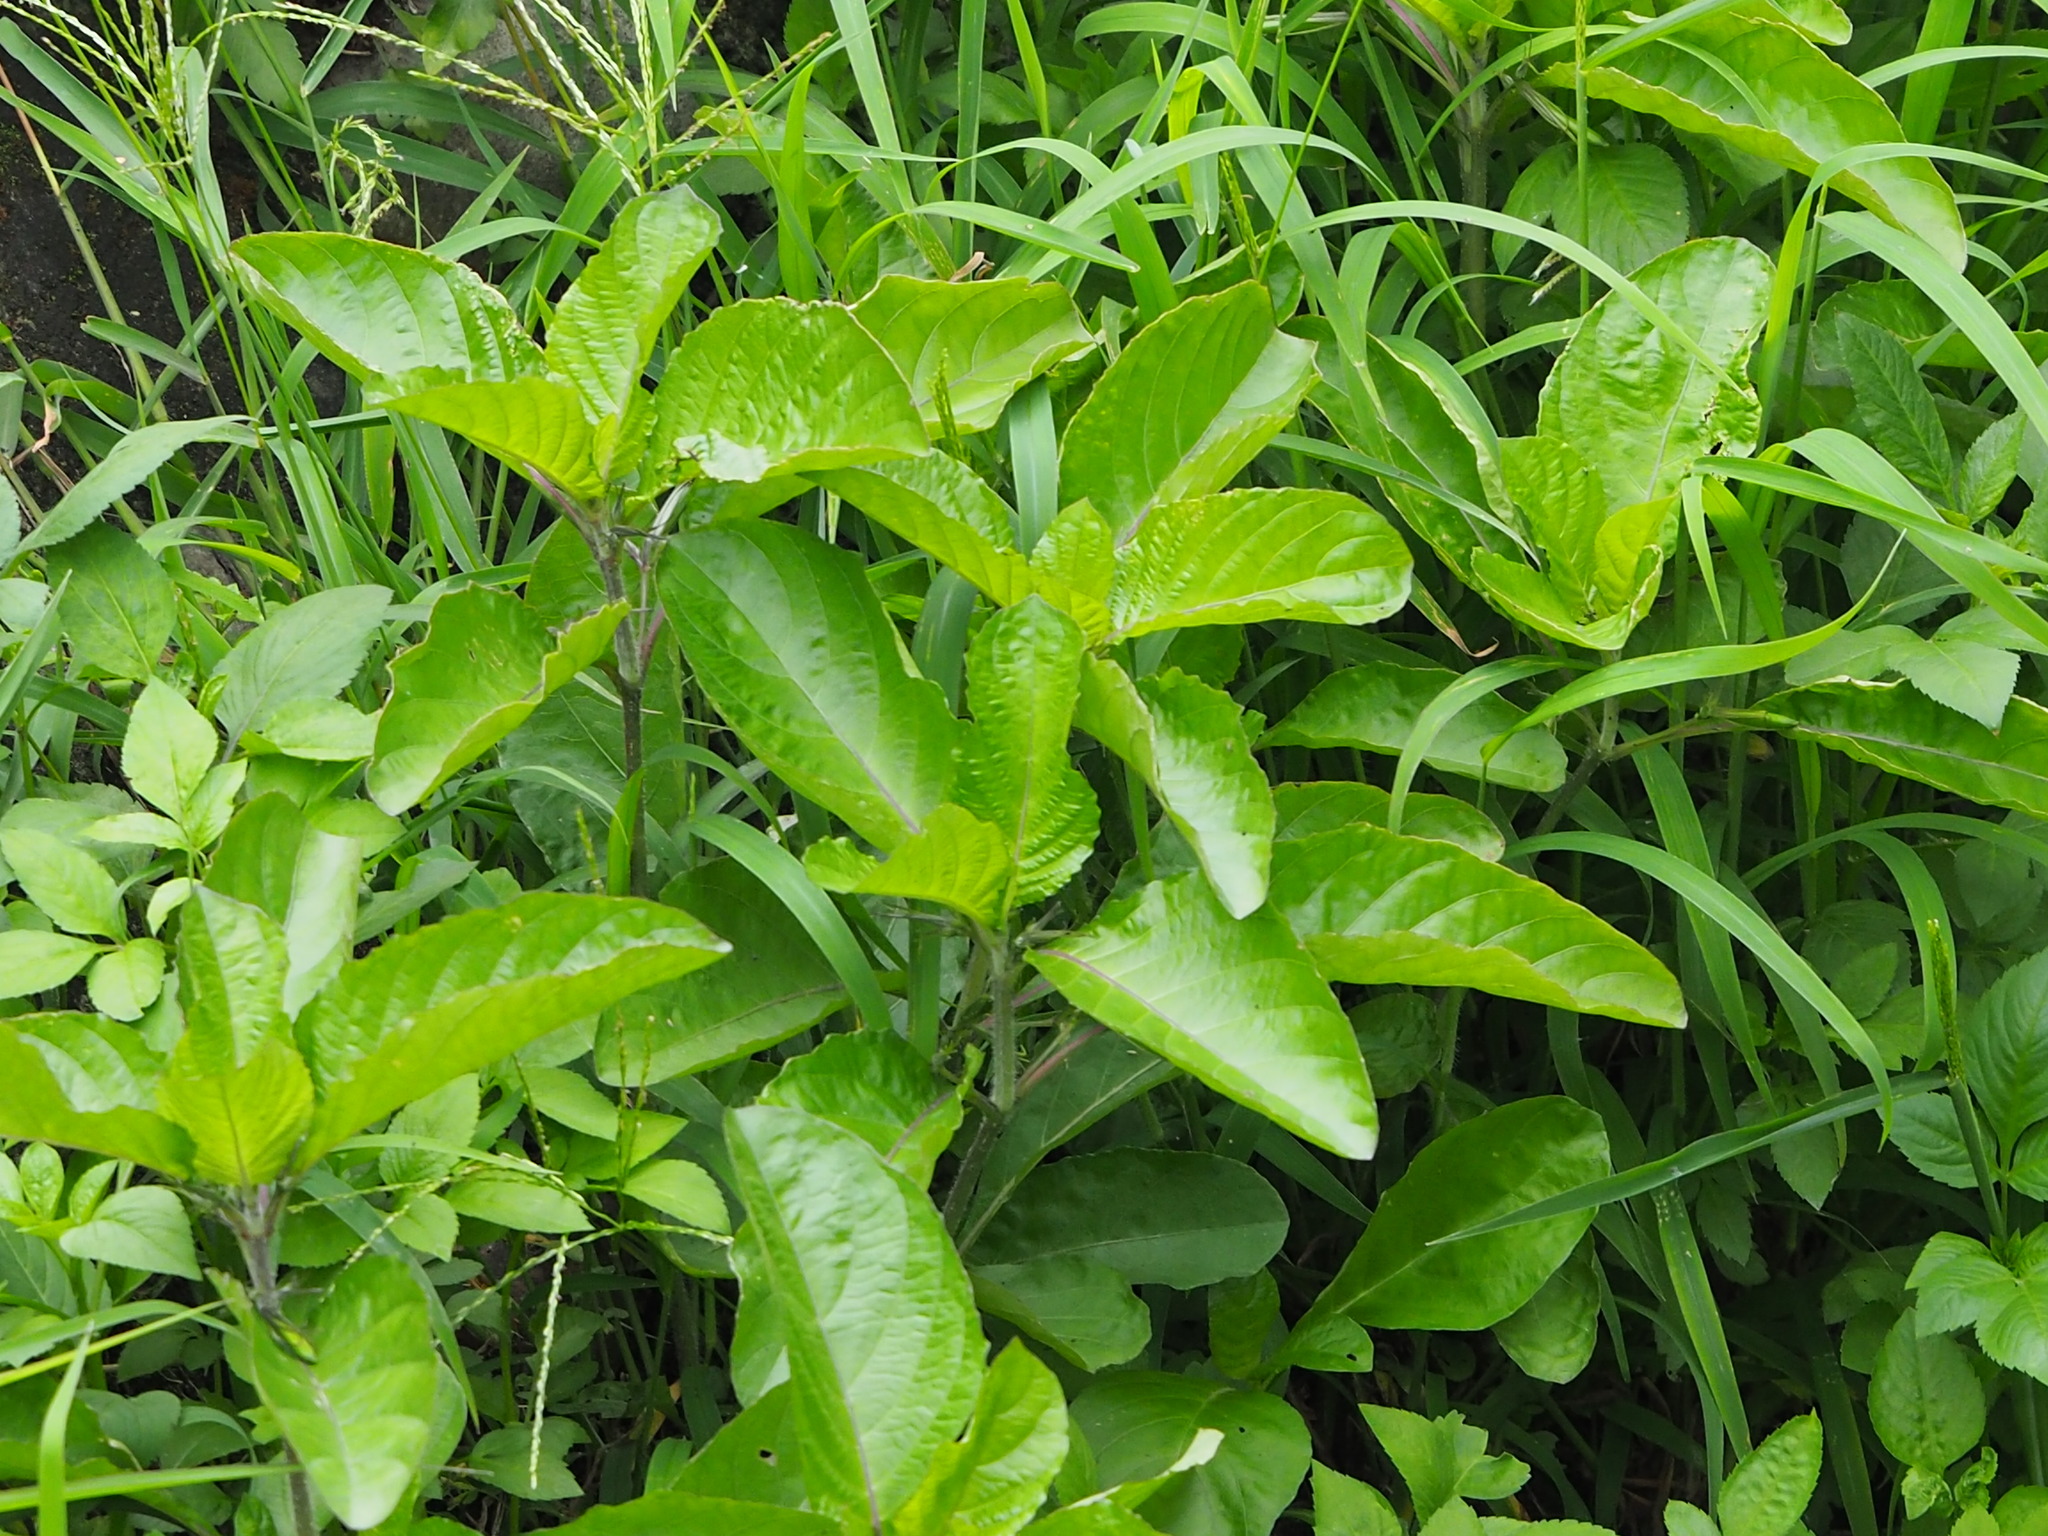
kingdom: Plantae
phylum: Tracheophyta
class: Magnoliopsida
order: Lamiales
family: Acanthaceae
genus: Ruellia
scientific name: Ruellia tuberosa
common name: Devil's bit
